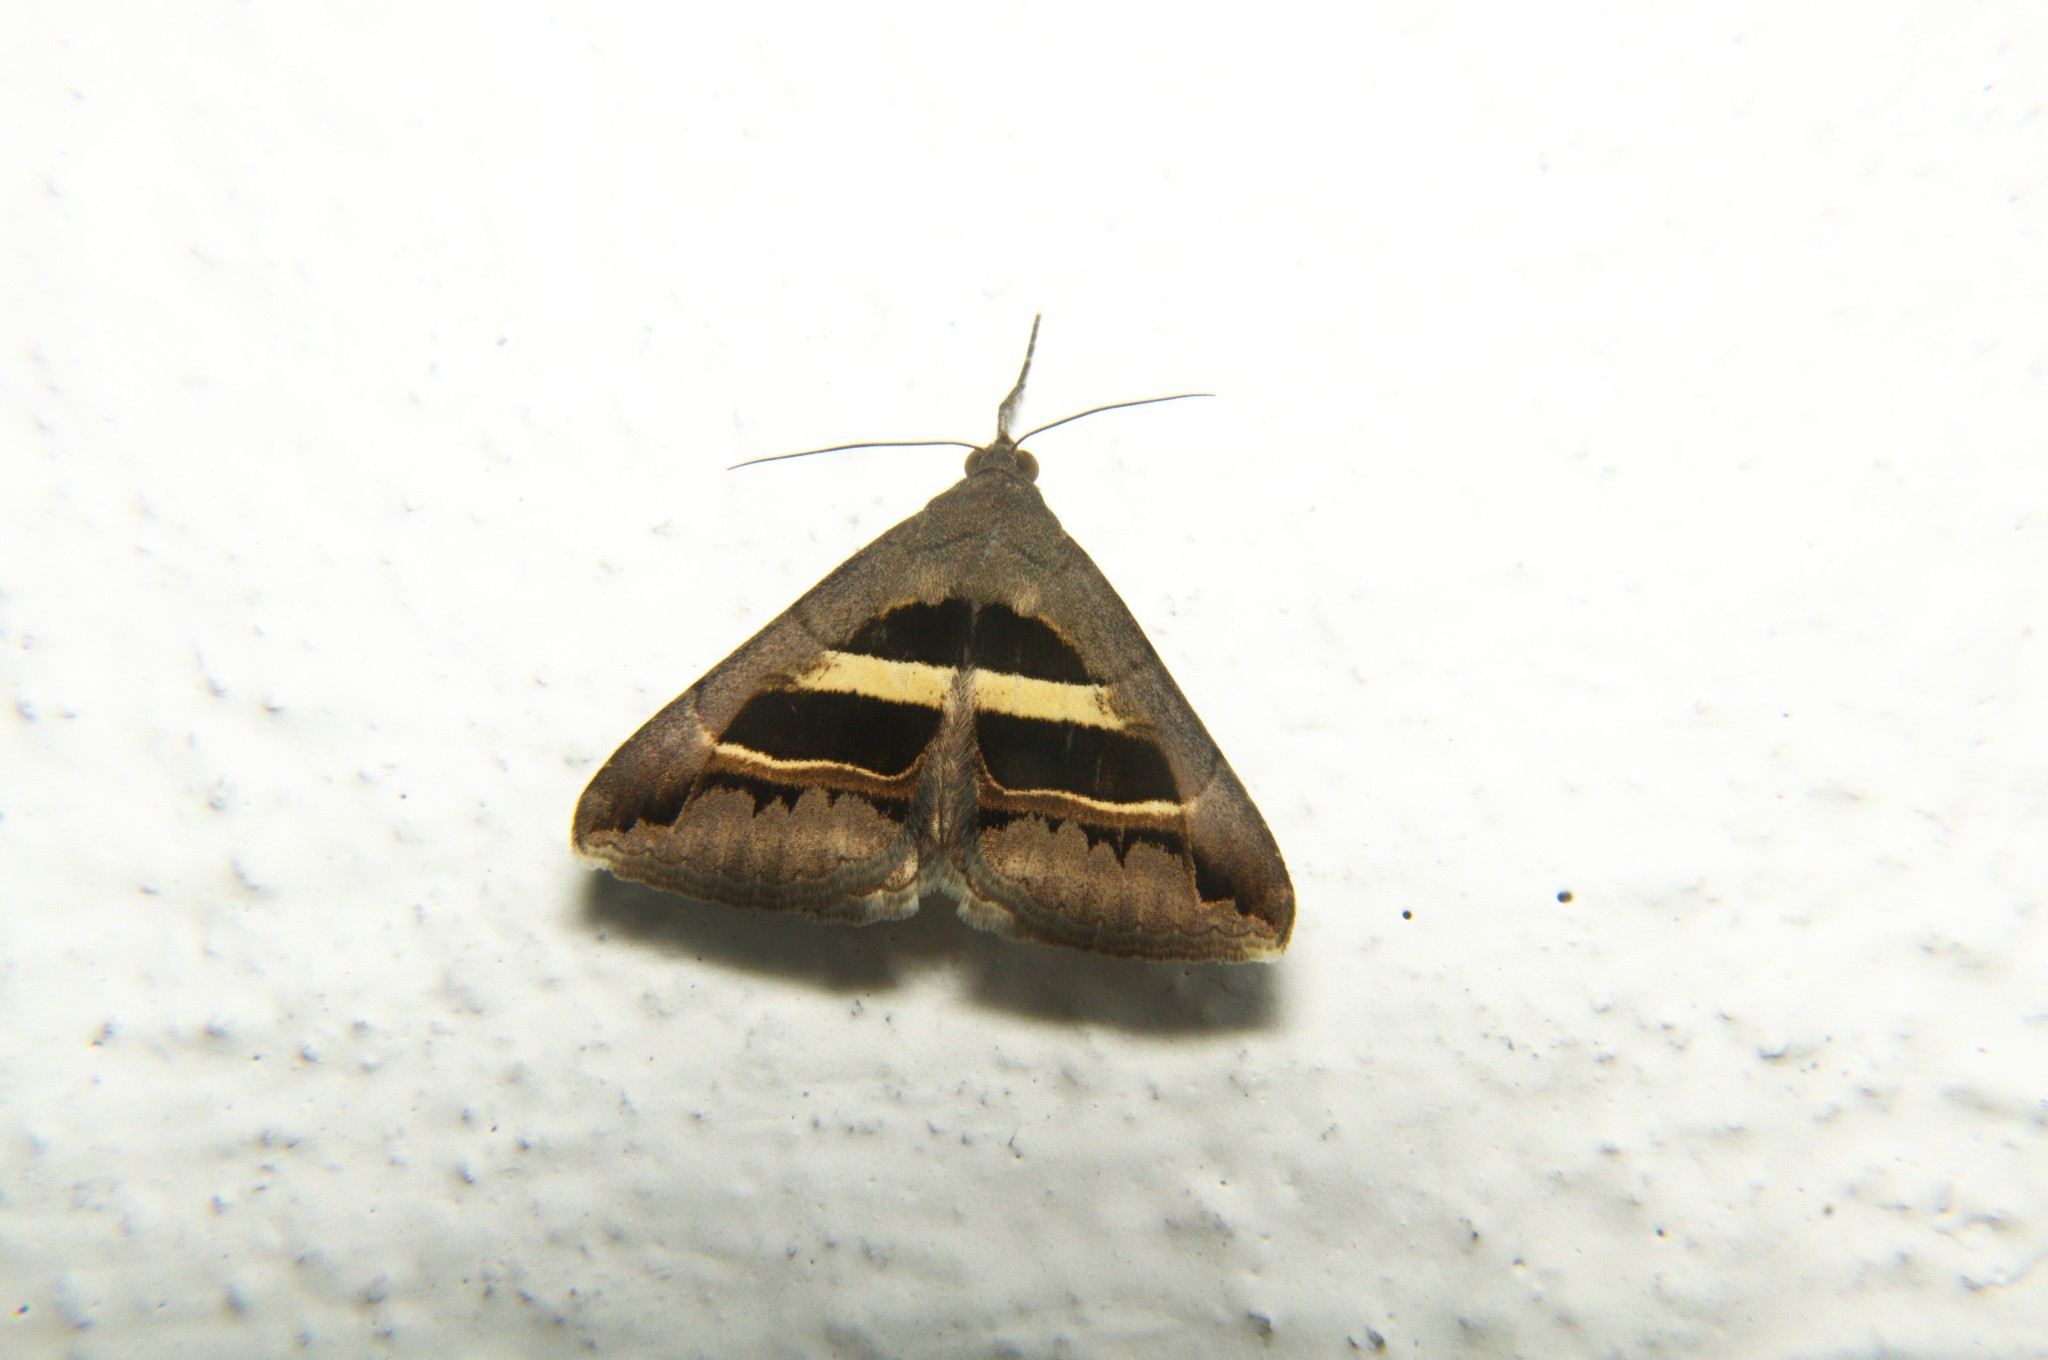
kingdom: Animalia
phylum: Arthropoda
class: Insecta
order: Lepidoptera
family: Erebidae
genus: Grammodes
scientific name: Grammodes geometrica
